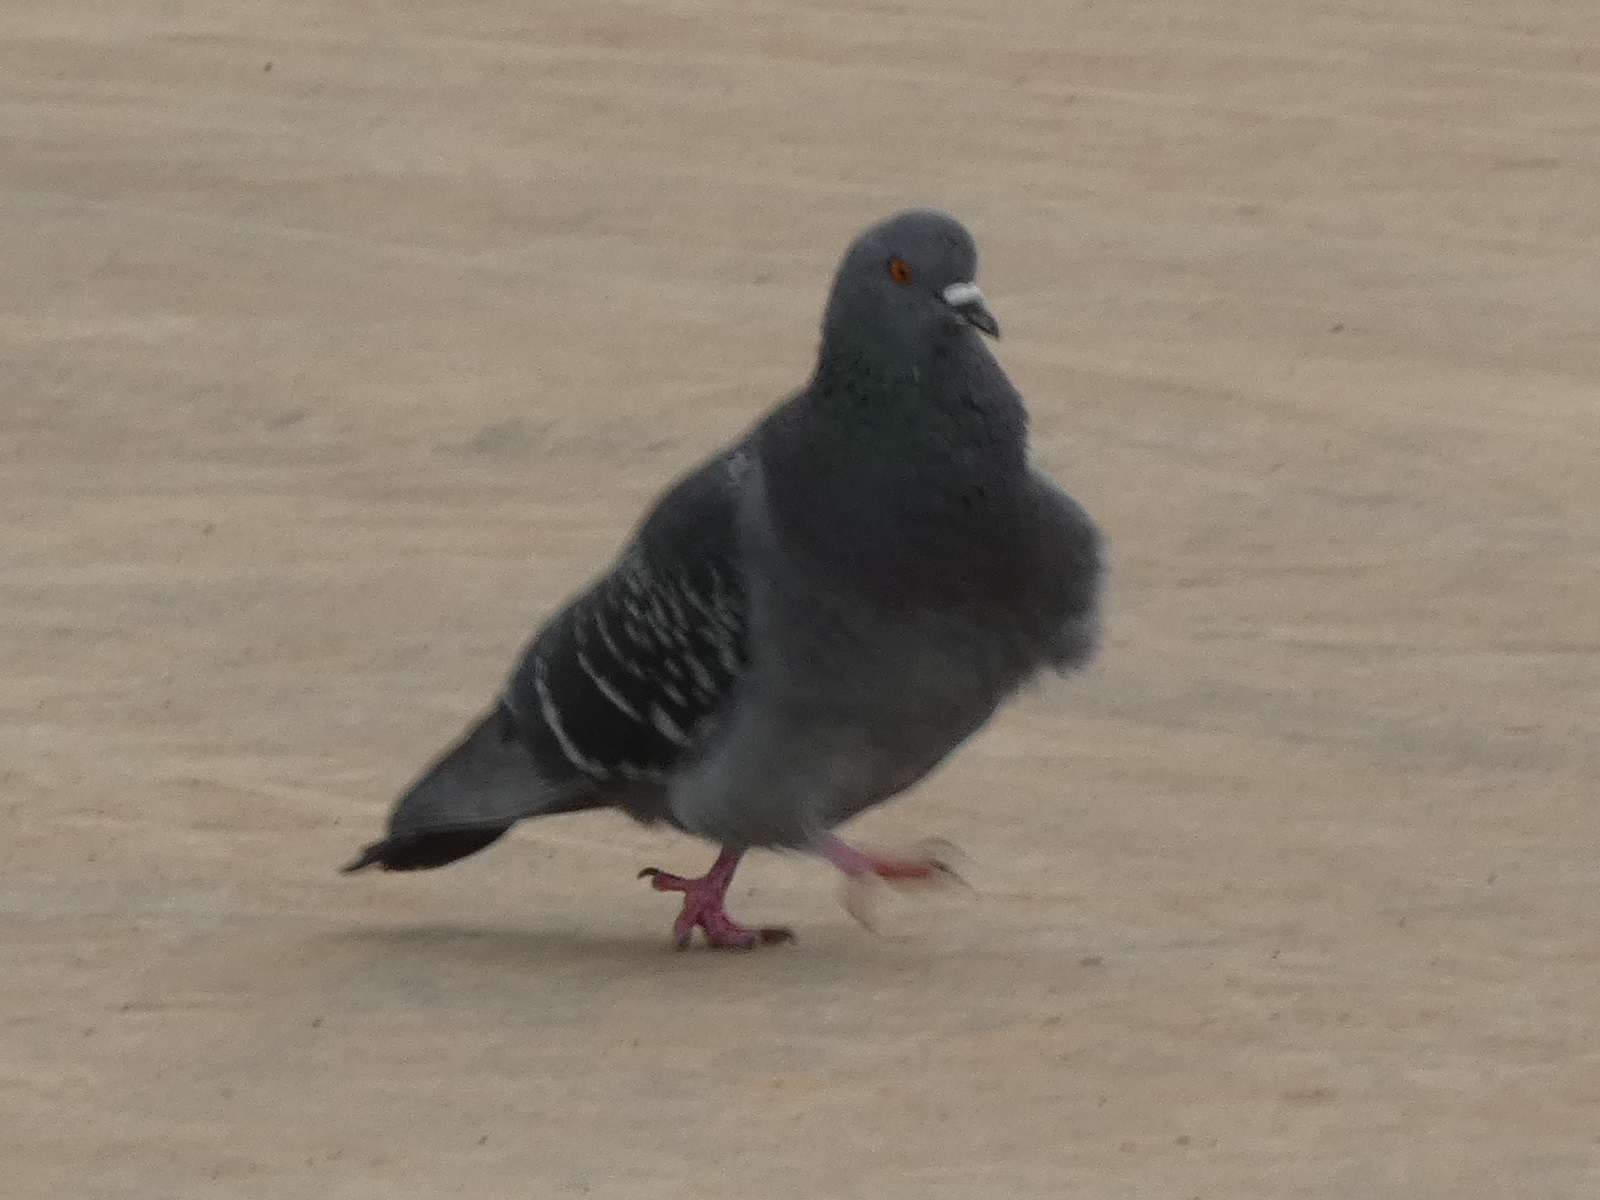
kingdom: Animalia
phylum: Chordata
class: Aves
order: Columbiformes
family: Columbidae
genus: Columba
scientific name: Columba livia
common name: Rock pigeon
